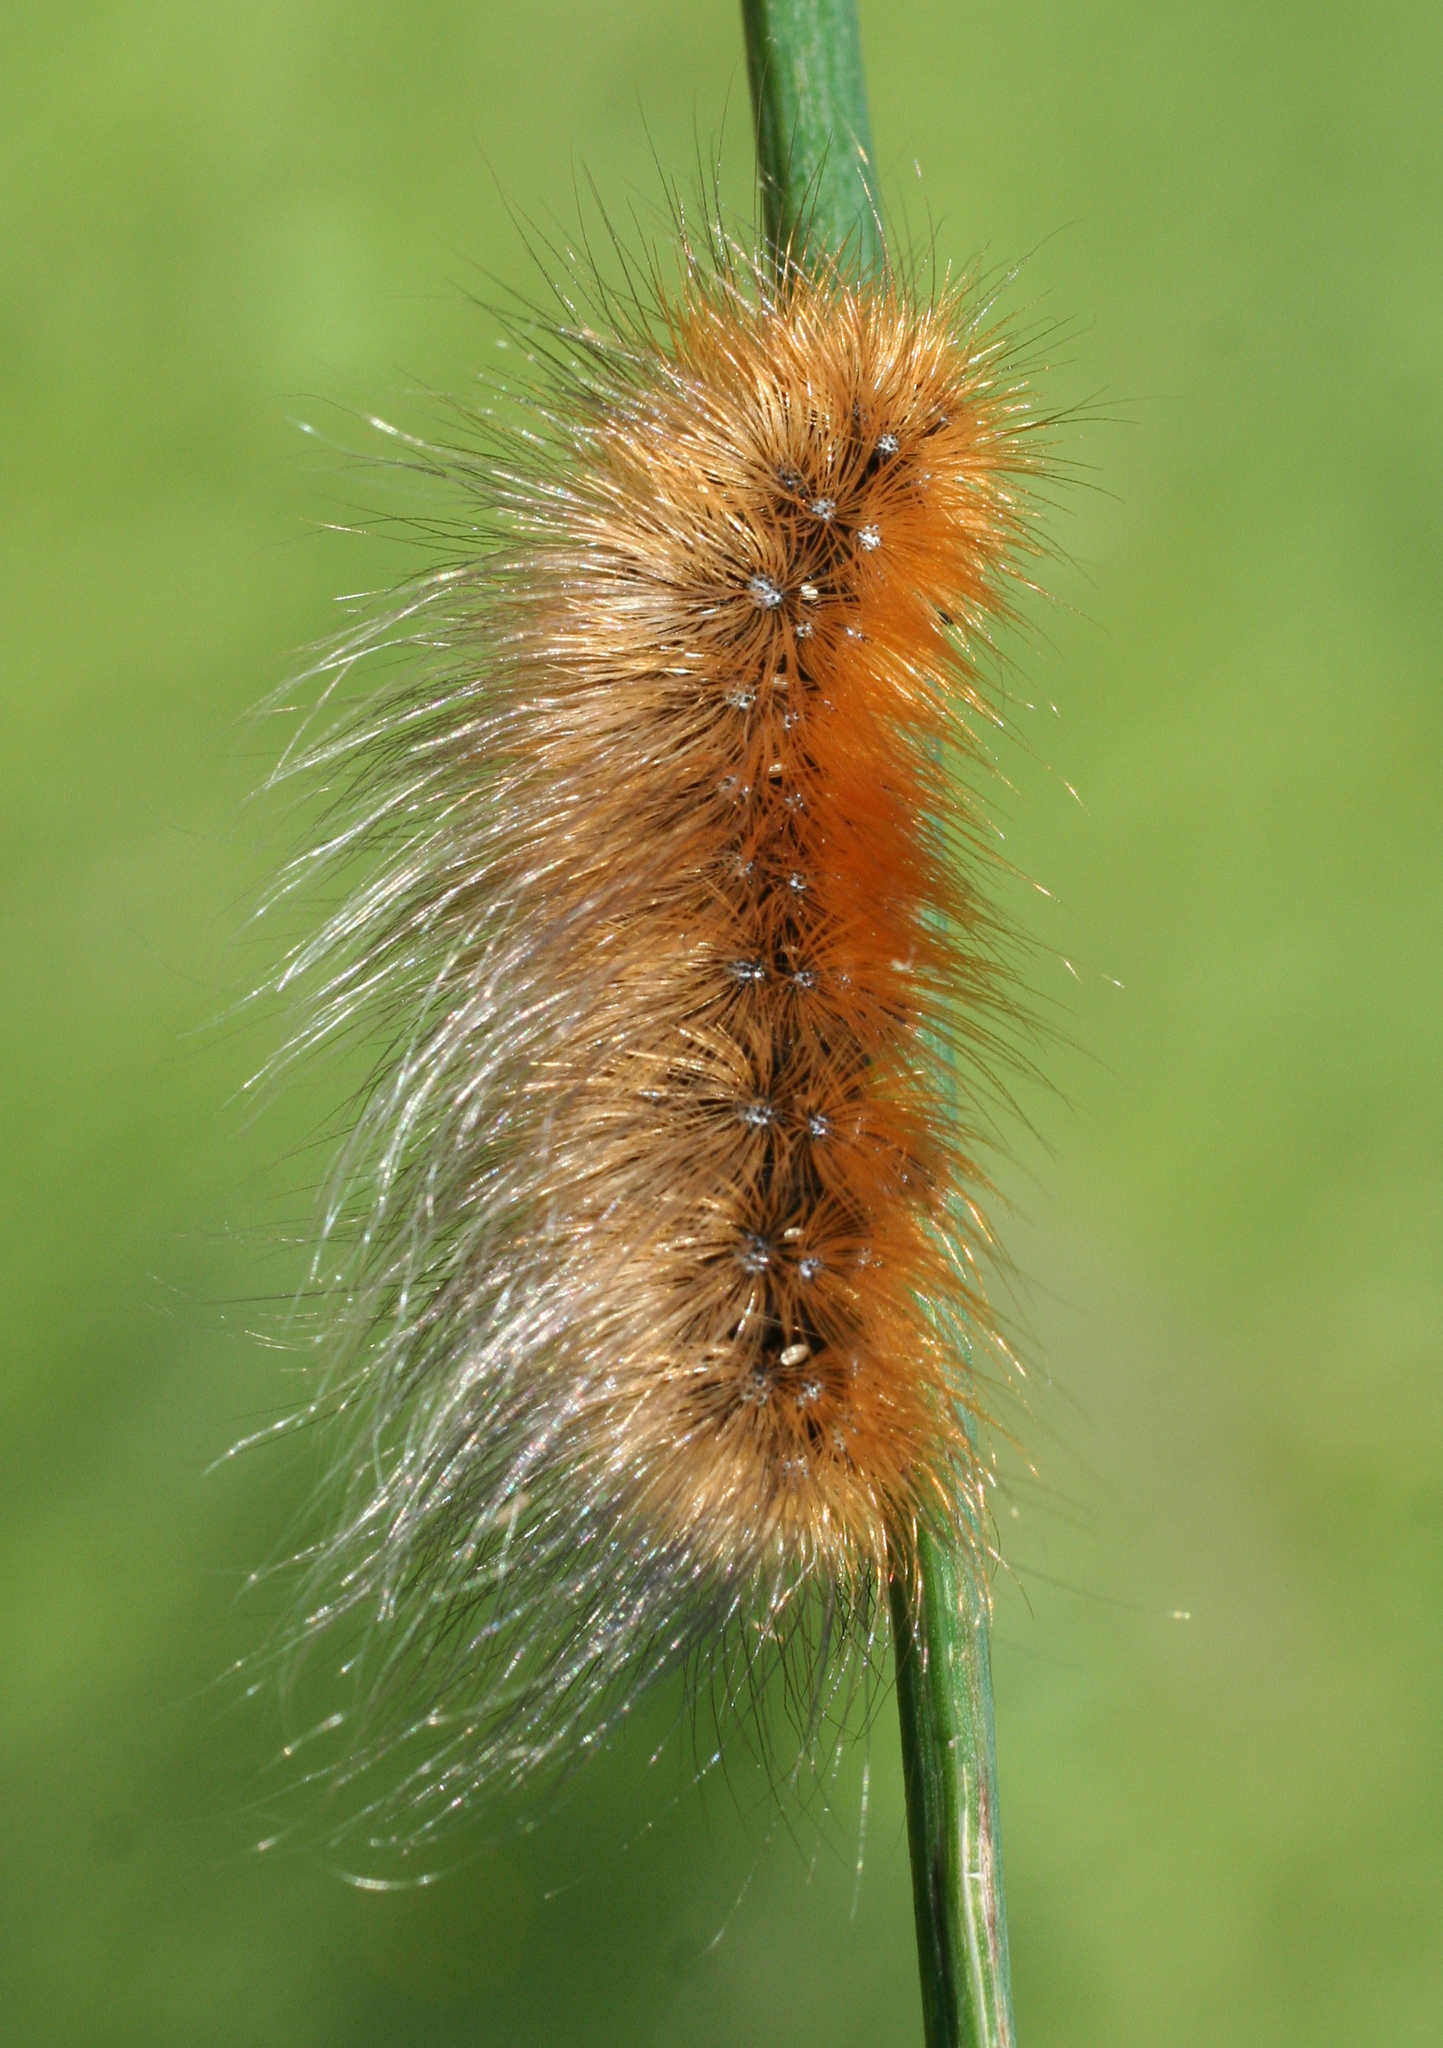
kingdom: Animalia
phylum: Arthropoda
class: Insecta
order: Lepidoptera
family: Erebidae
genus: Arctia
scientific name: Arctia caja
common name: Garden tiger
